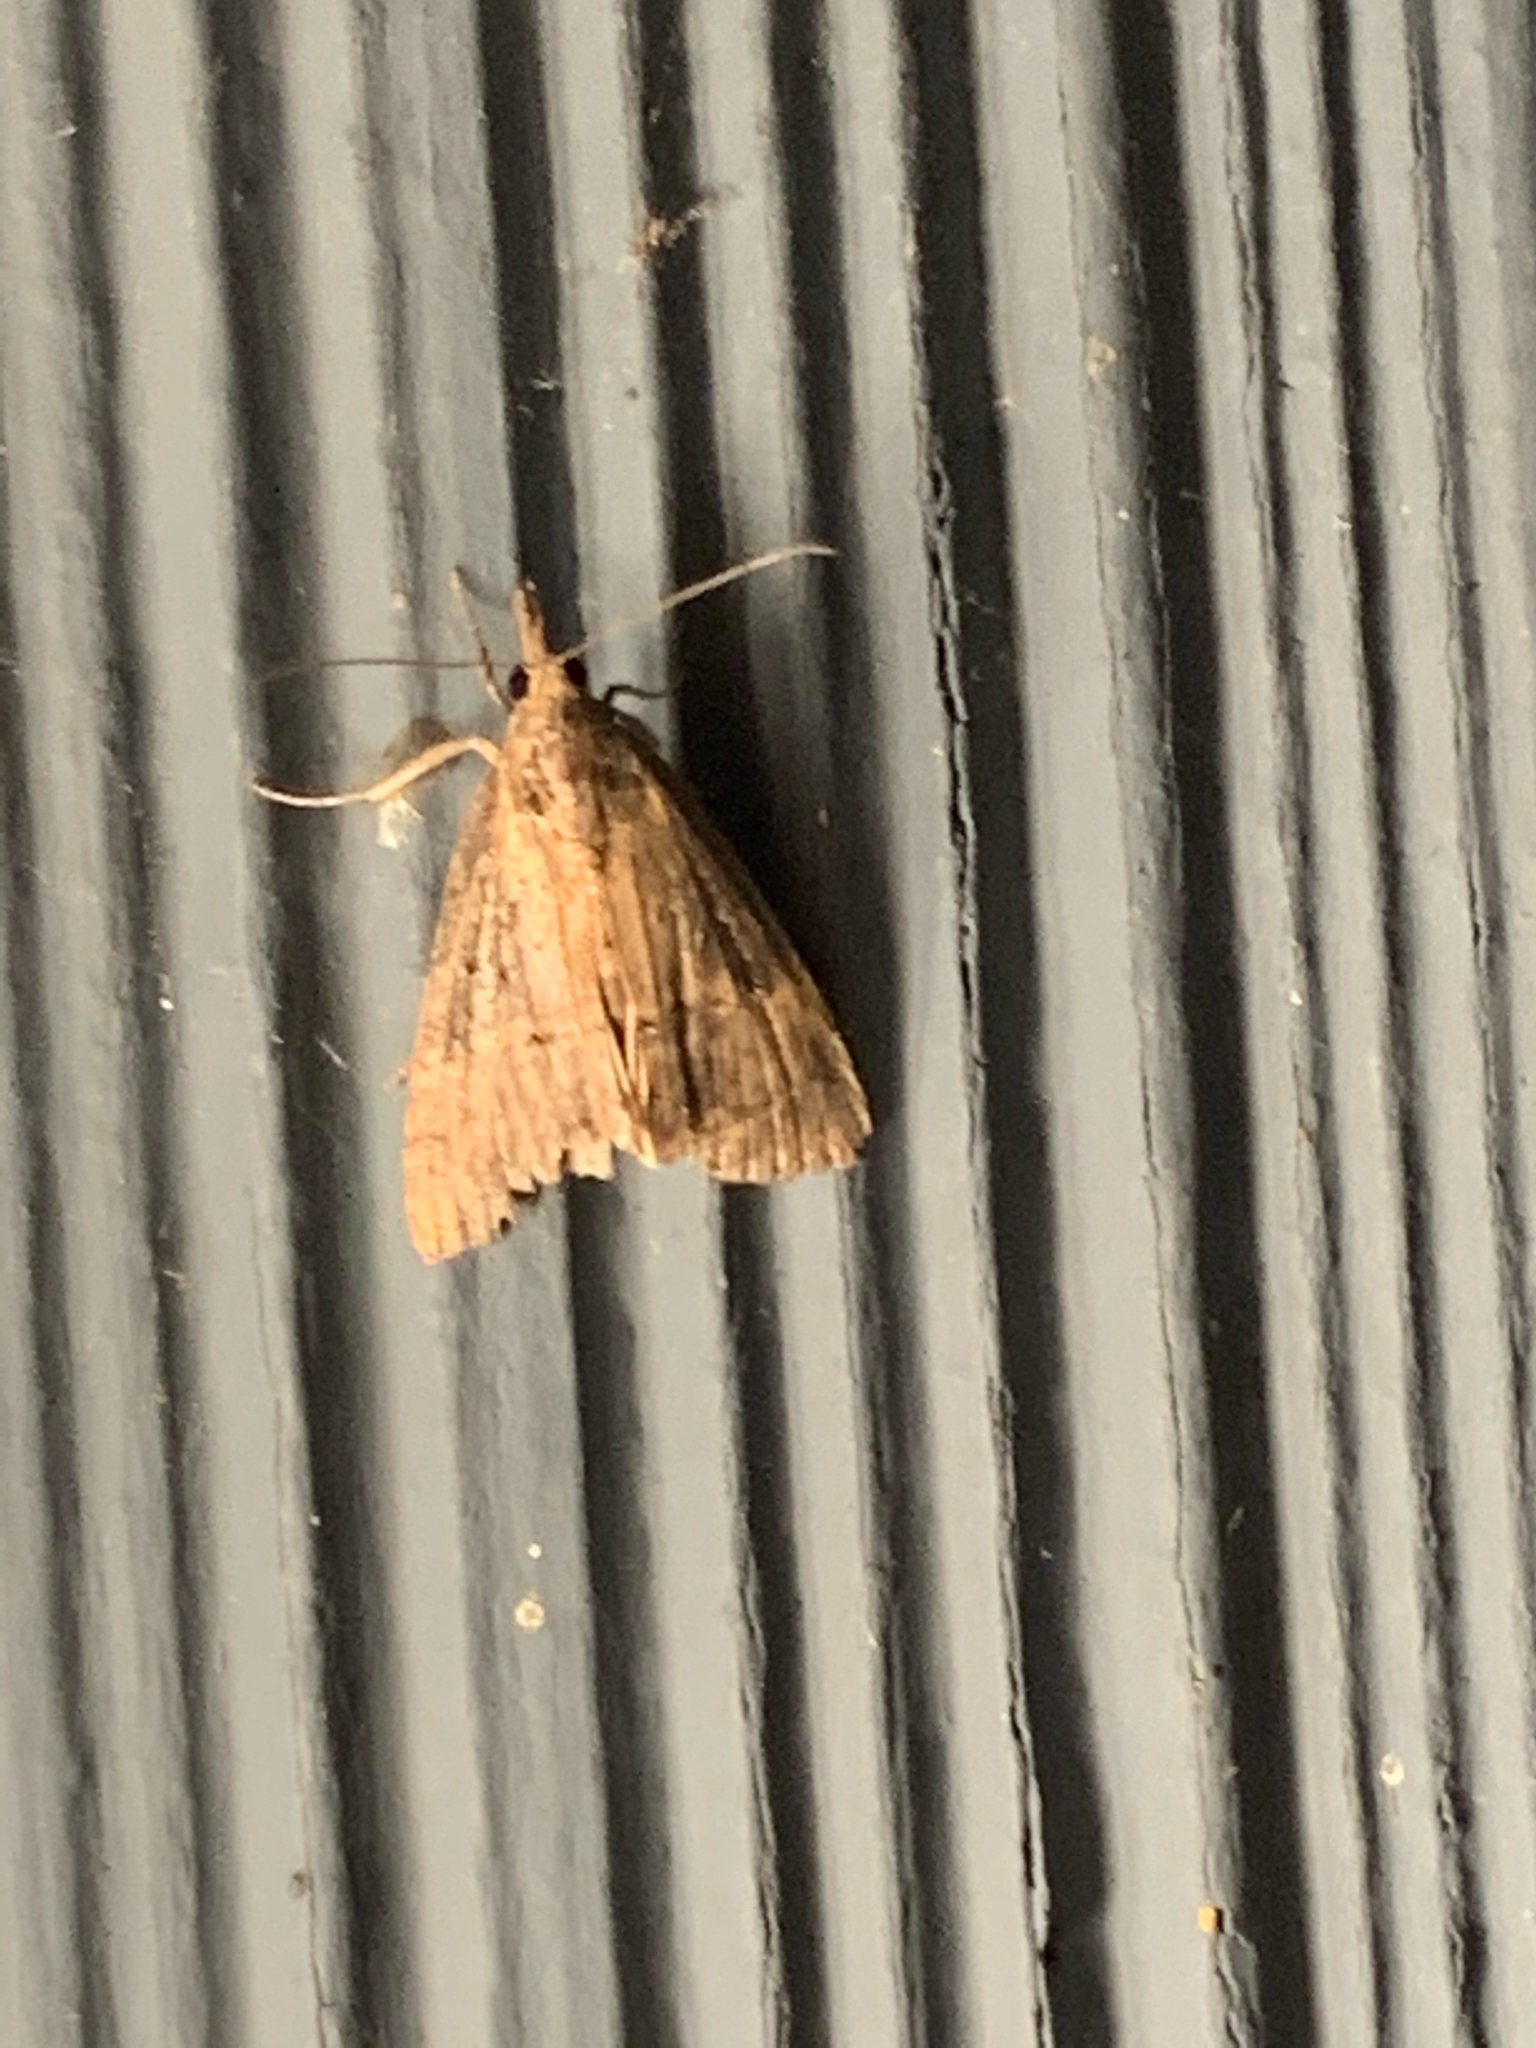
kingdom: Animalia
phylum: Arthropoda
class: Insecta
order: Lepidoptera
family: Erebidae
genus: Hypena
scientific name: Hypena scabra
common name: Green cloverworm
